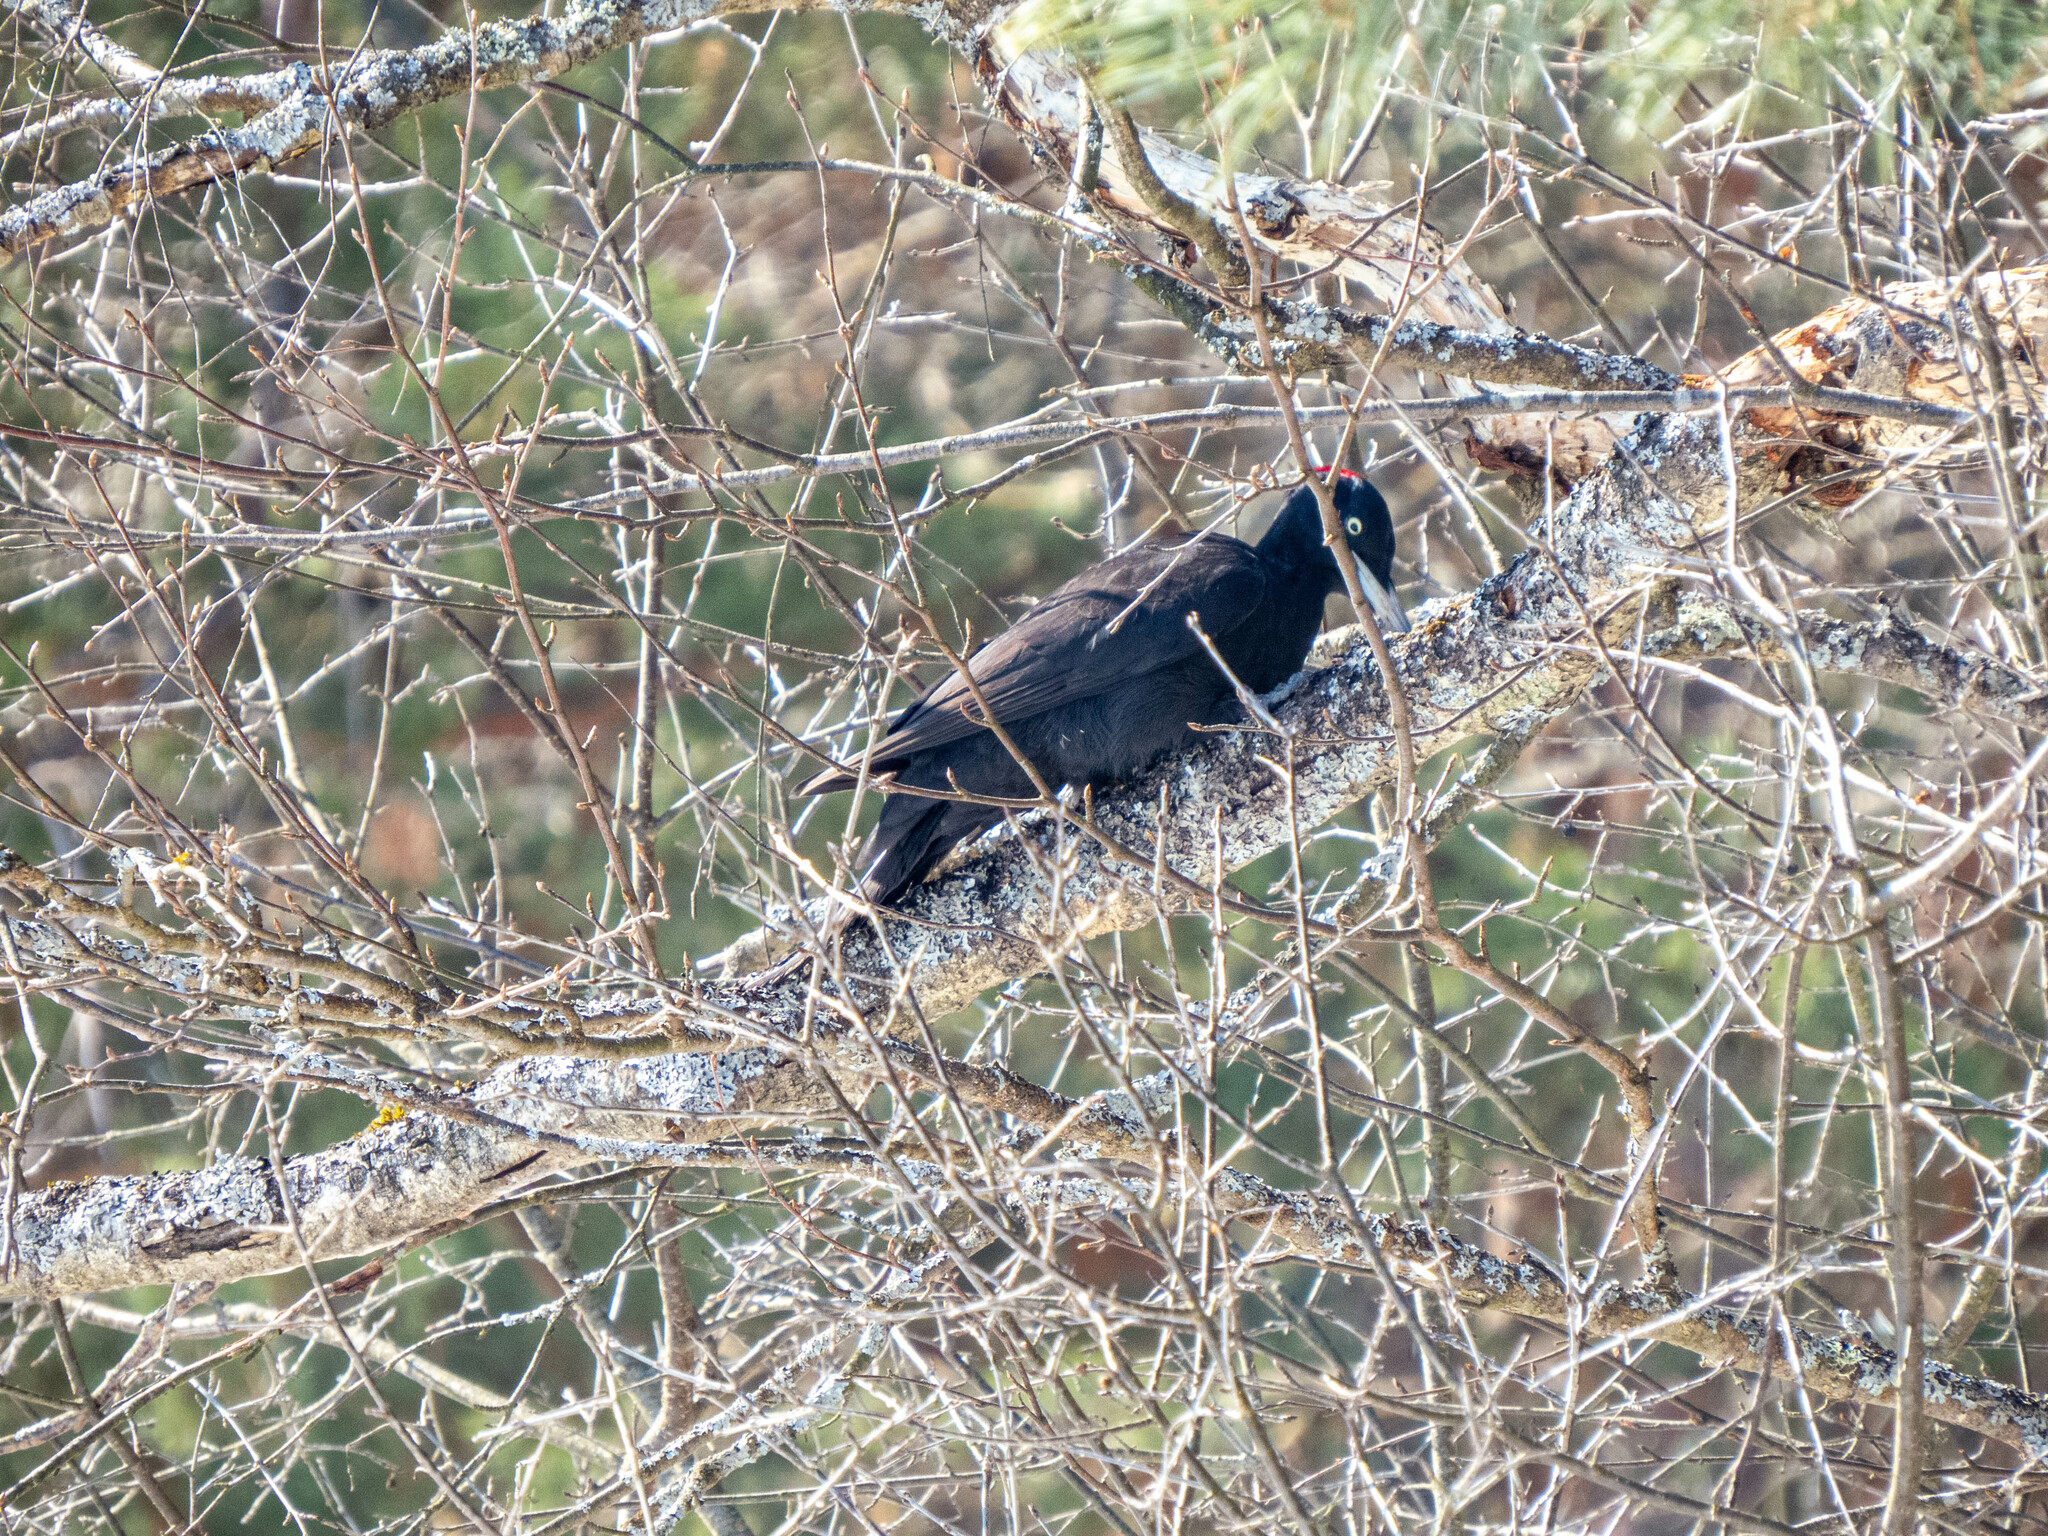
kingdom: Animalia
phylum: Chordata
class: Aves
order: Piciformes
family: Picidae
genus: Dryocopus
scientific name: Dryocopus martius
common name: Black woodpecker
